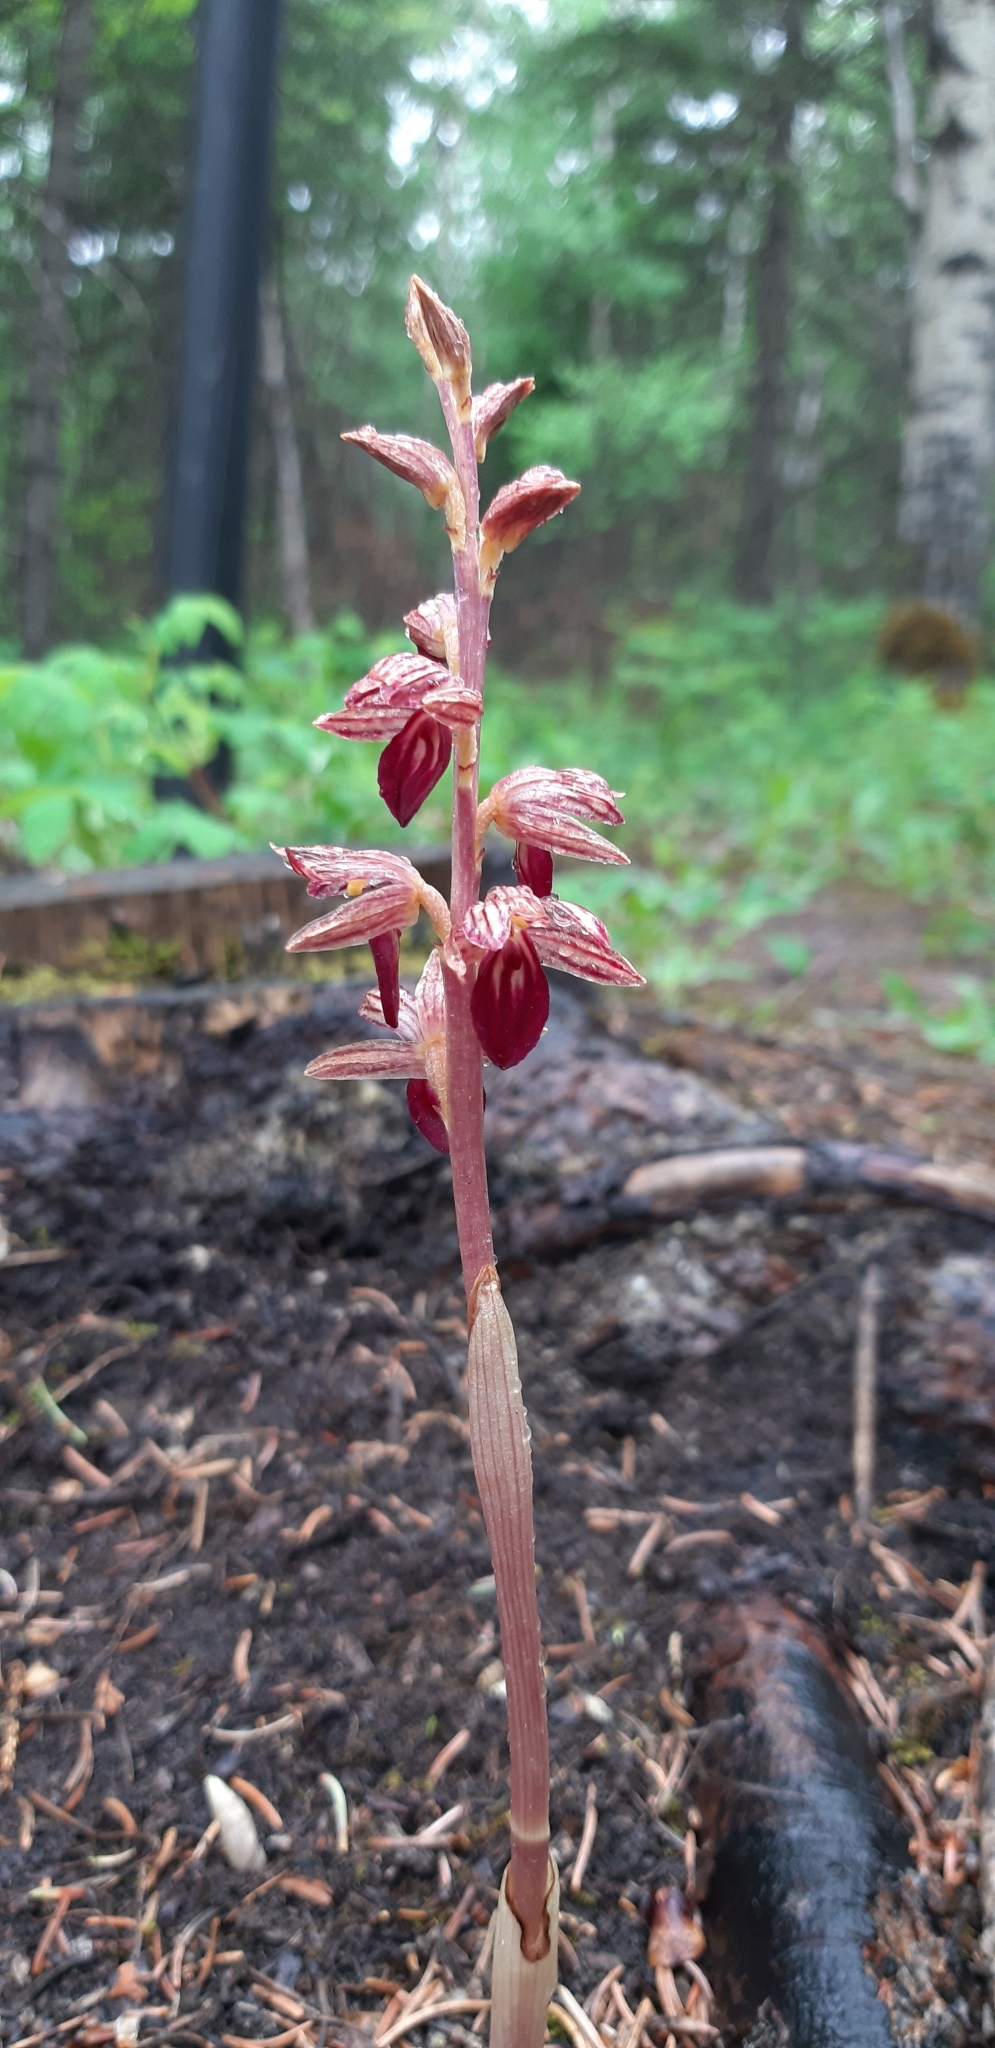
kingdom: Plantae
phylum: Tracheophyta
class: Liliopsida
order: Asparagales
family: Orchidaceae
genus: Corallorhiza
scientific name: Corallorhiza striata
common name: Hooded coralroot
